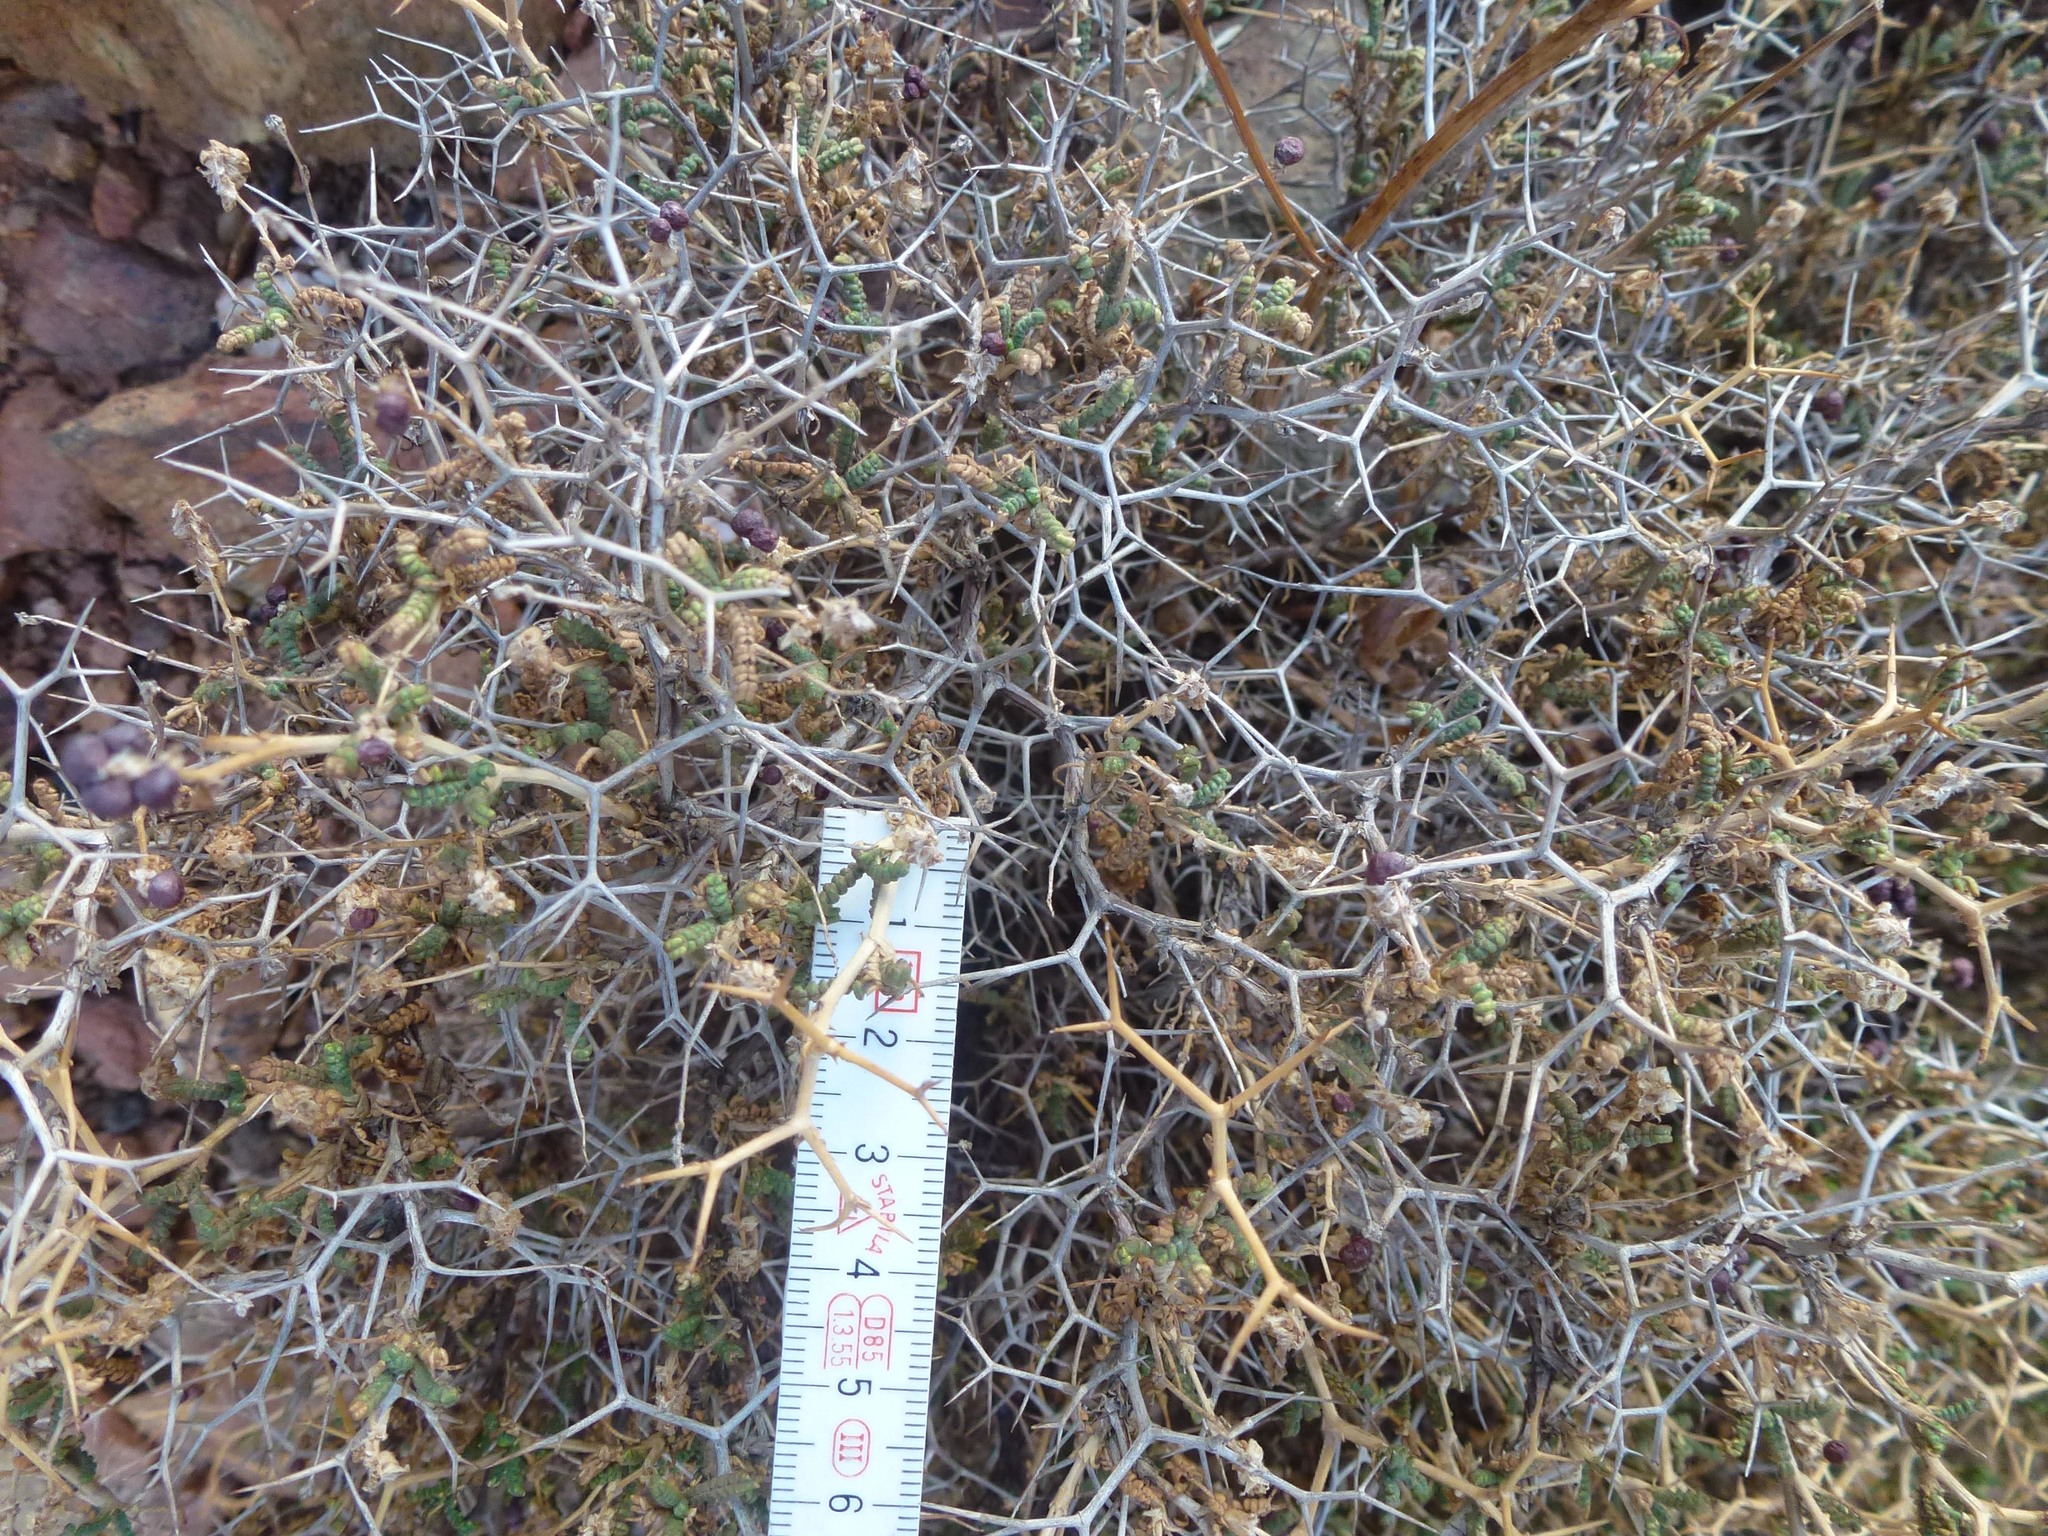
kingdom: Plantae
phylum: Tracheophyta
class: Magnoliopsida
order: Rosales
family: Rosaceae
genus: Sarcopoterium
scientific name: Sarcopoterium spinosum
